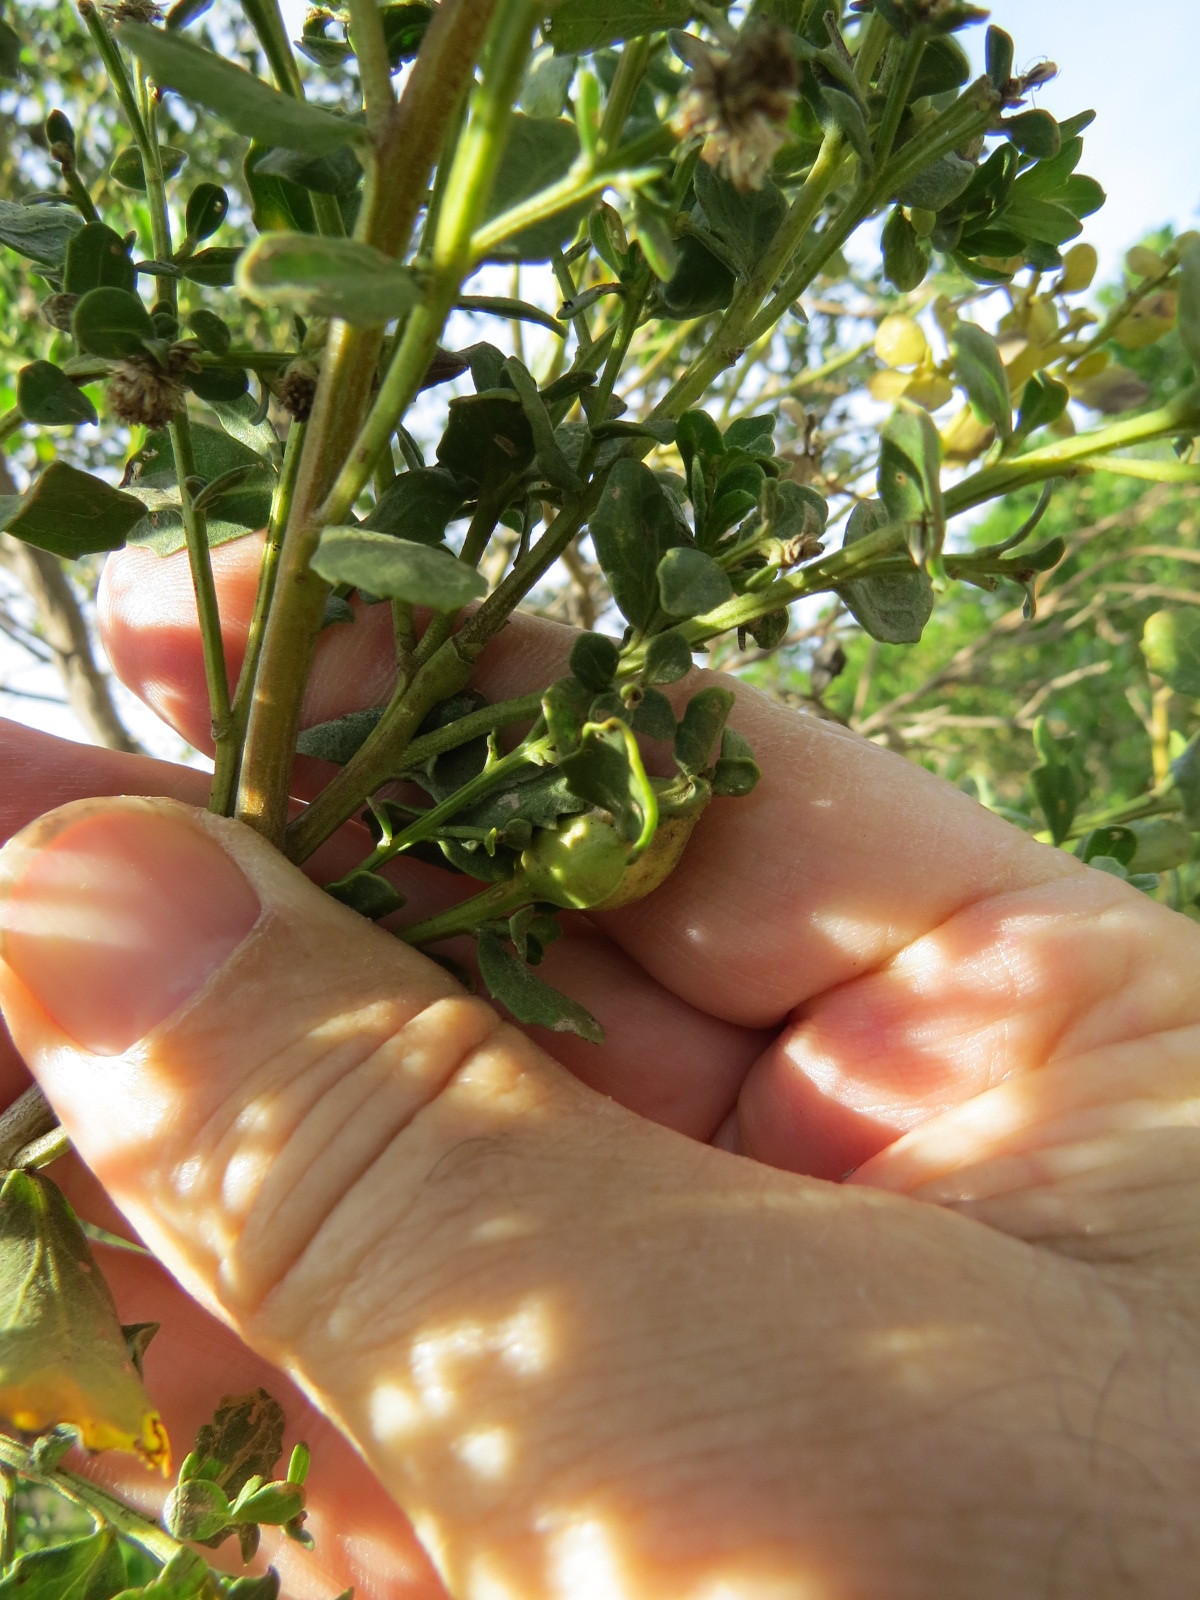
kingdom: Animalia
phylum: Arthropoda
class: Insecta
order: Lepidoptera
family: Gelechiidae
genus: Gnorimoschema
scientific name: Gnorimoschema baccharisella
